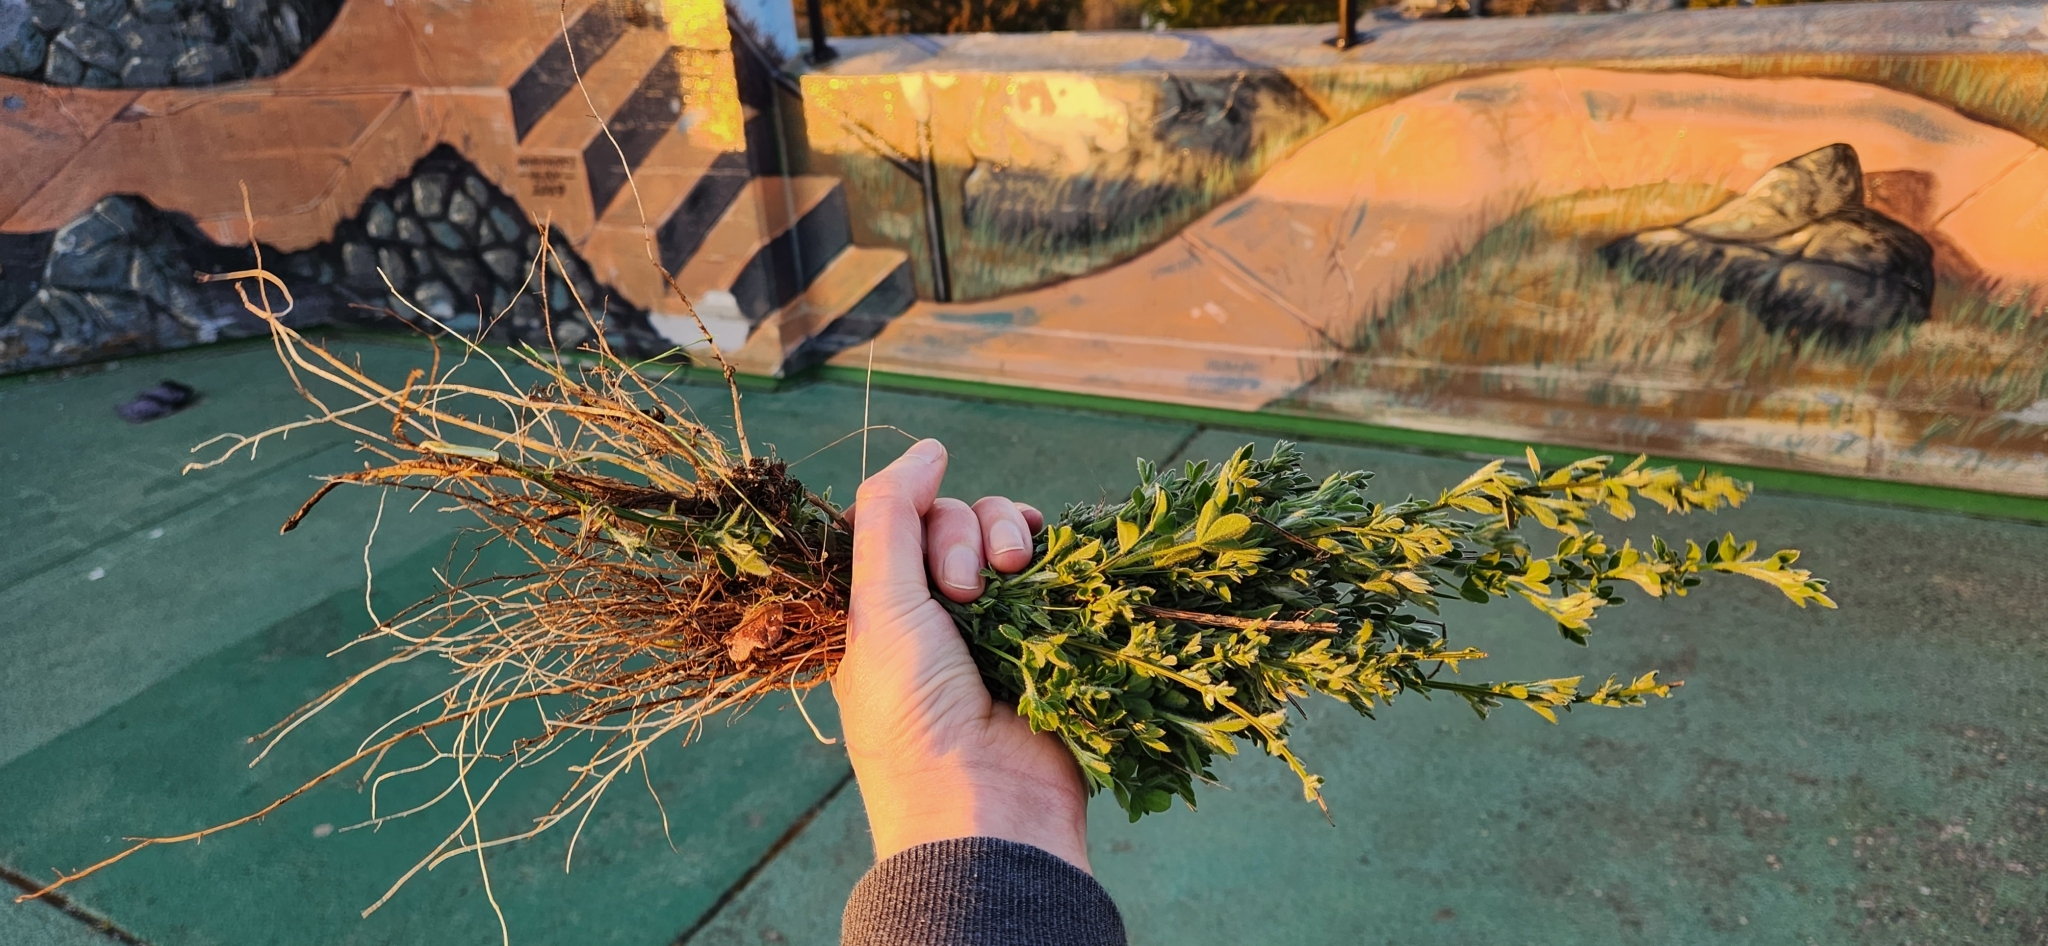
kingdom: Plantae
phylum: Tracheophyta
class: Magnoliopsida
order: Fabales
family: Fabaceae
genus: Cytisus
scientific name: Cytisus scoparius
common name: Scotch broom
